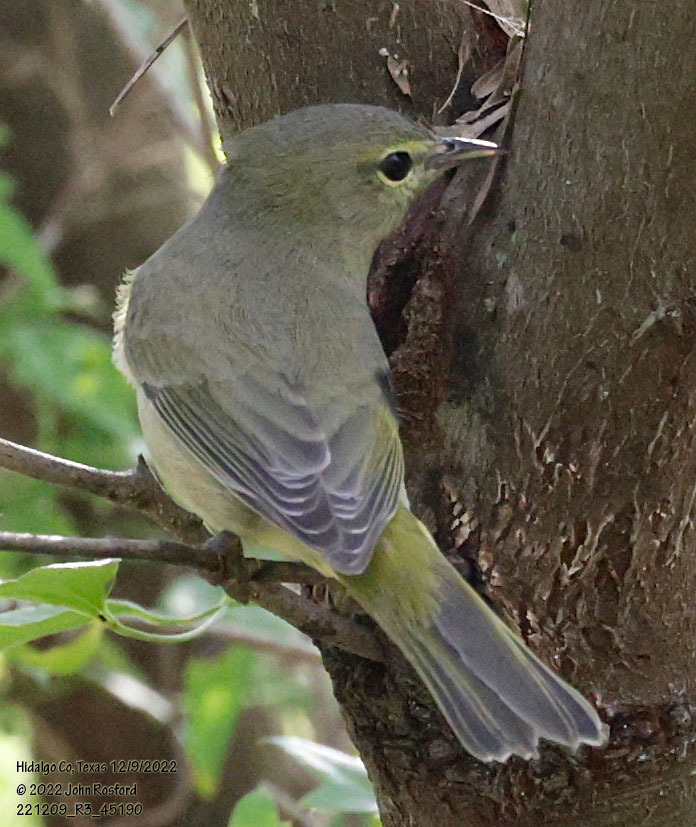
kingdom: Animalia
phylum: Chordata
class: Aves
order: Passeriformes
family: Parulidae
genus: Leiothlypis
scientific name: Leiothlypis celata
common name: Orange-crowned warbler
